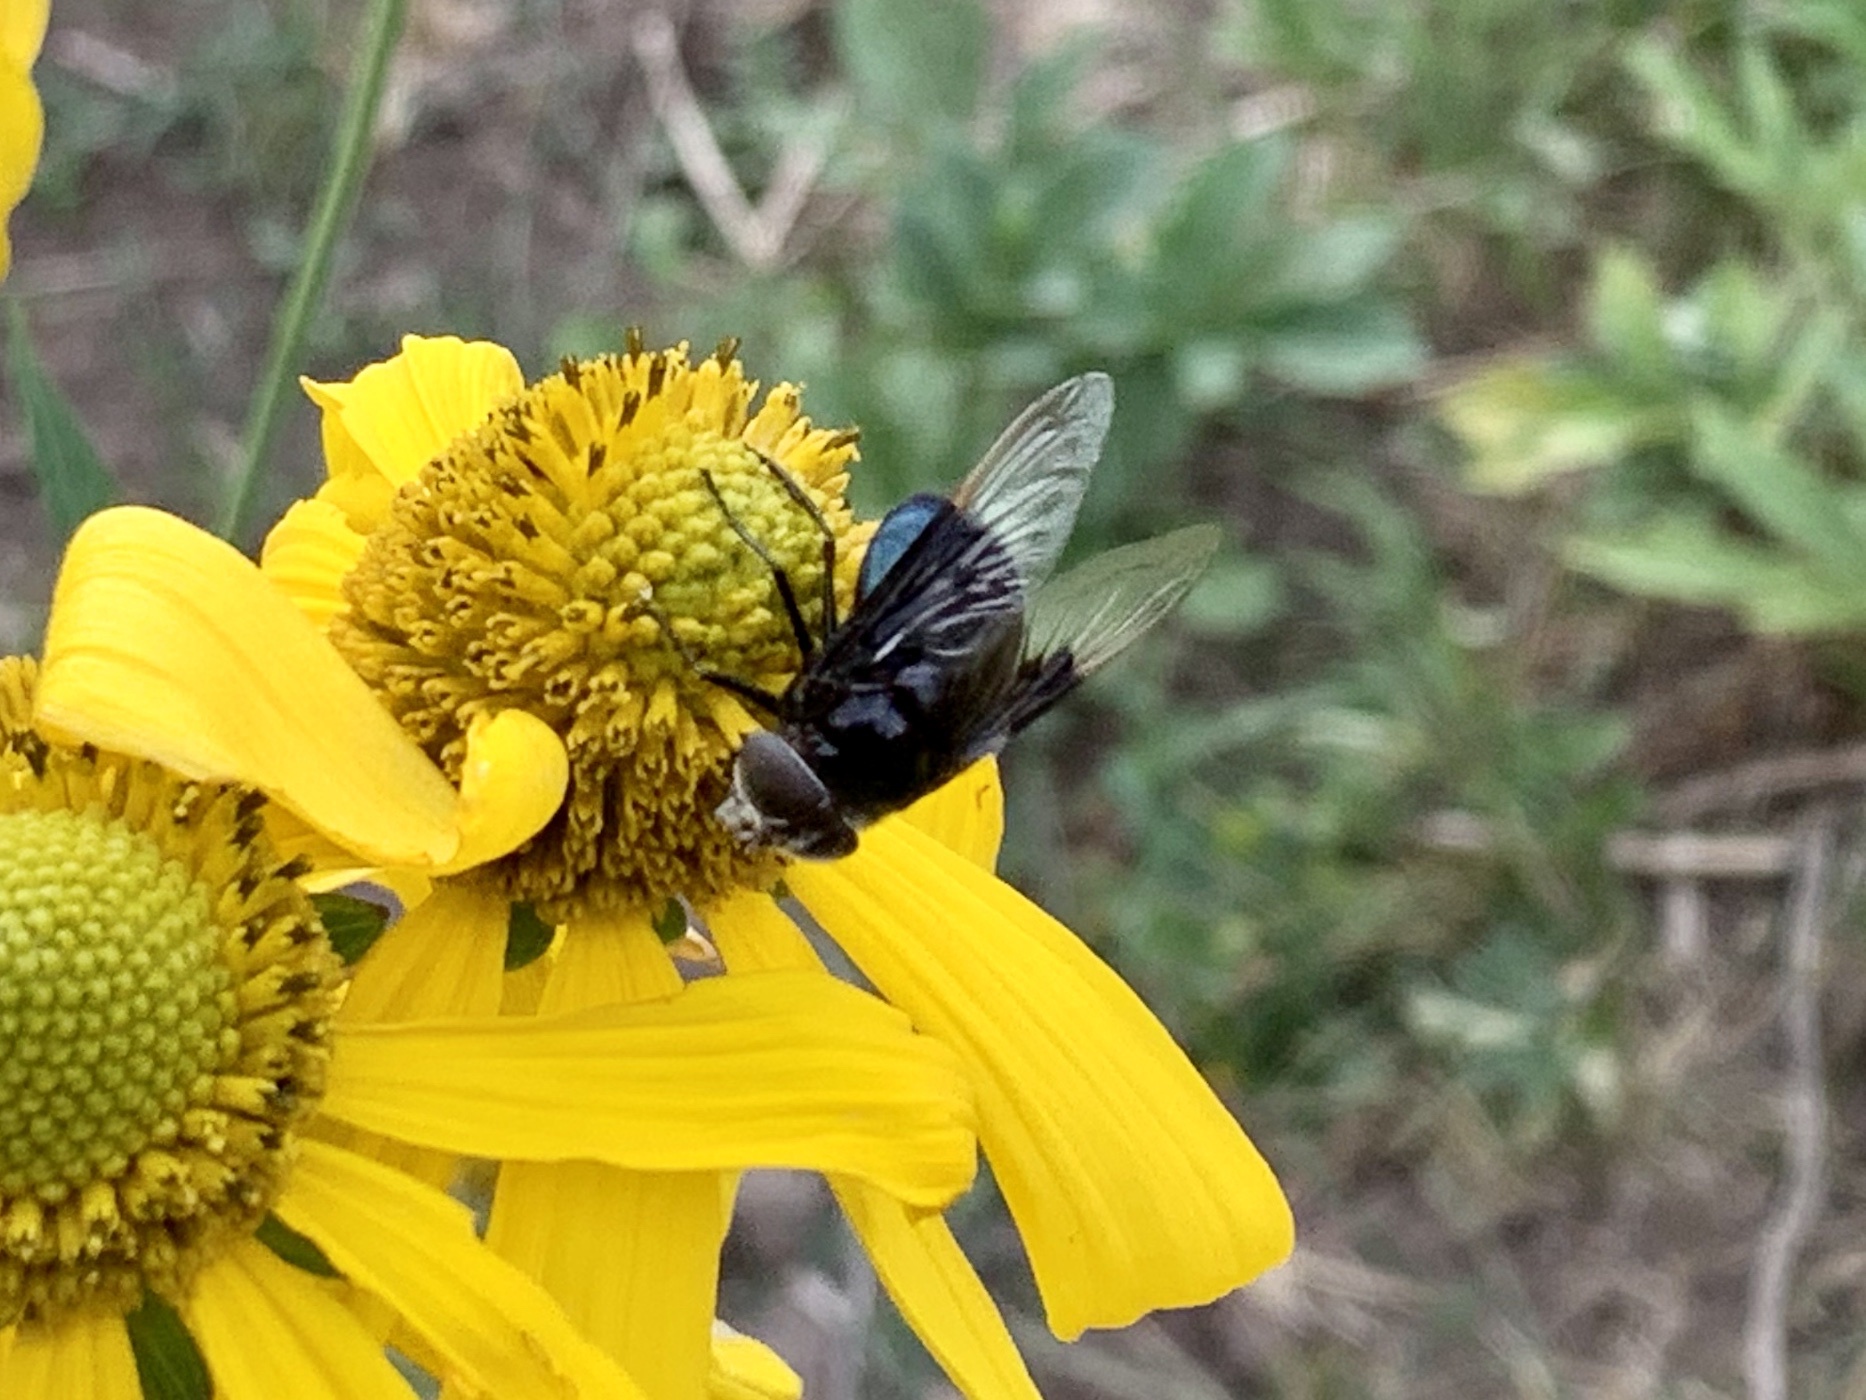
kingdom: Animalia
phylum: Arthropoda
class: Insecta
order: Diptera
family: Syrphidae
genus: Copestylum
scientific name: Copestylum
